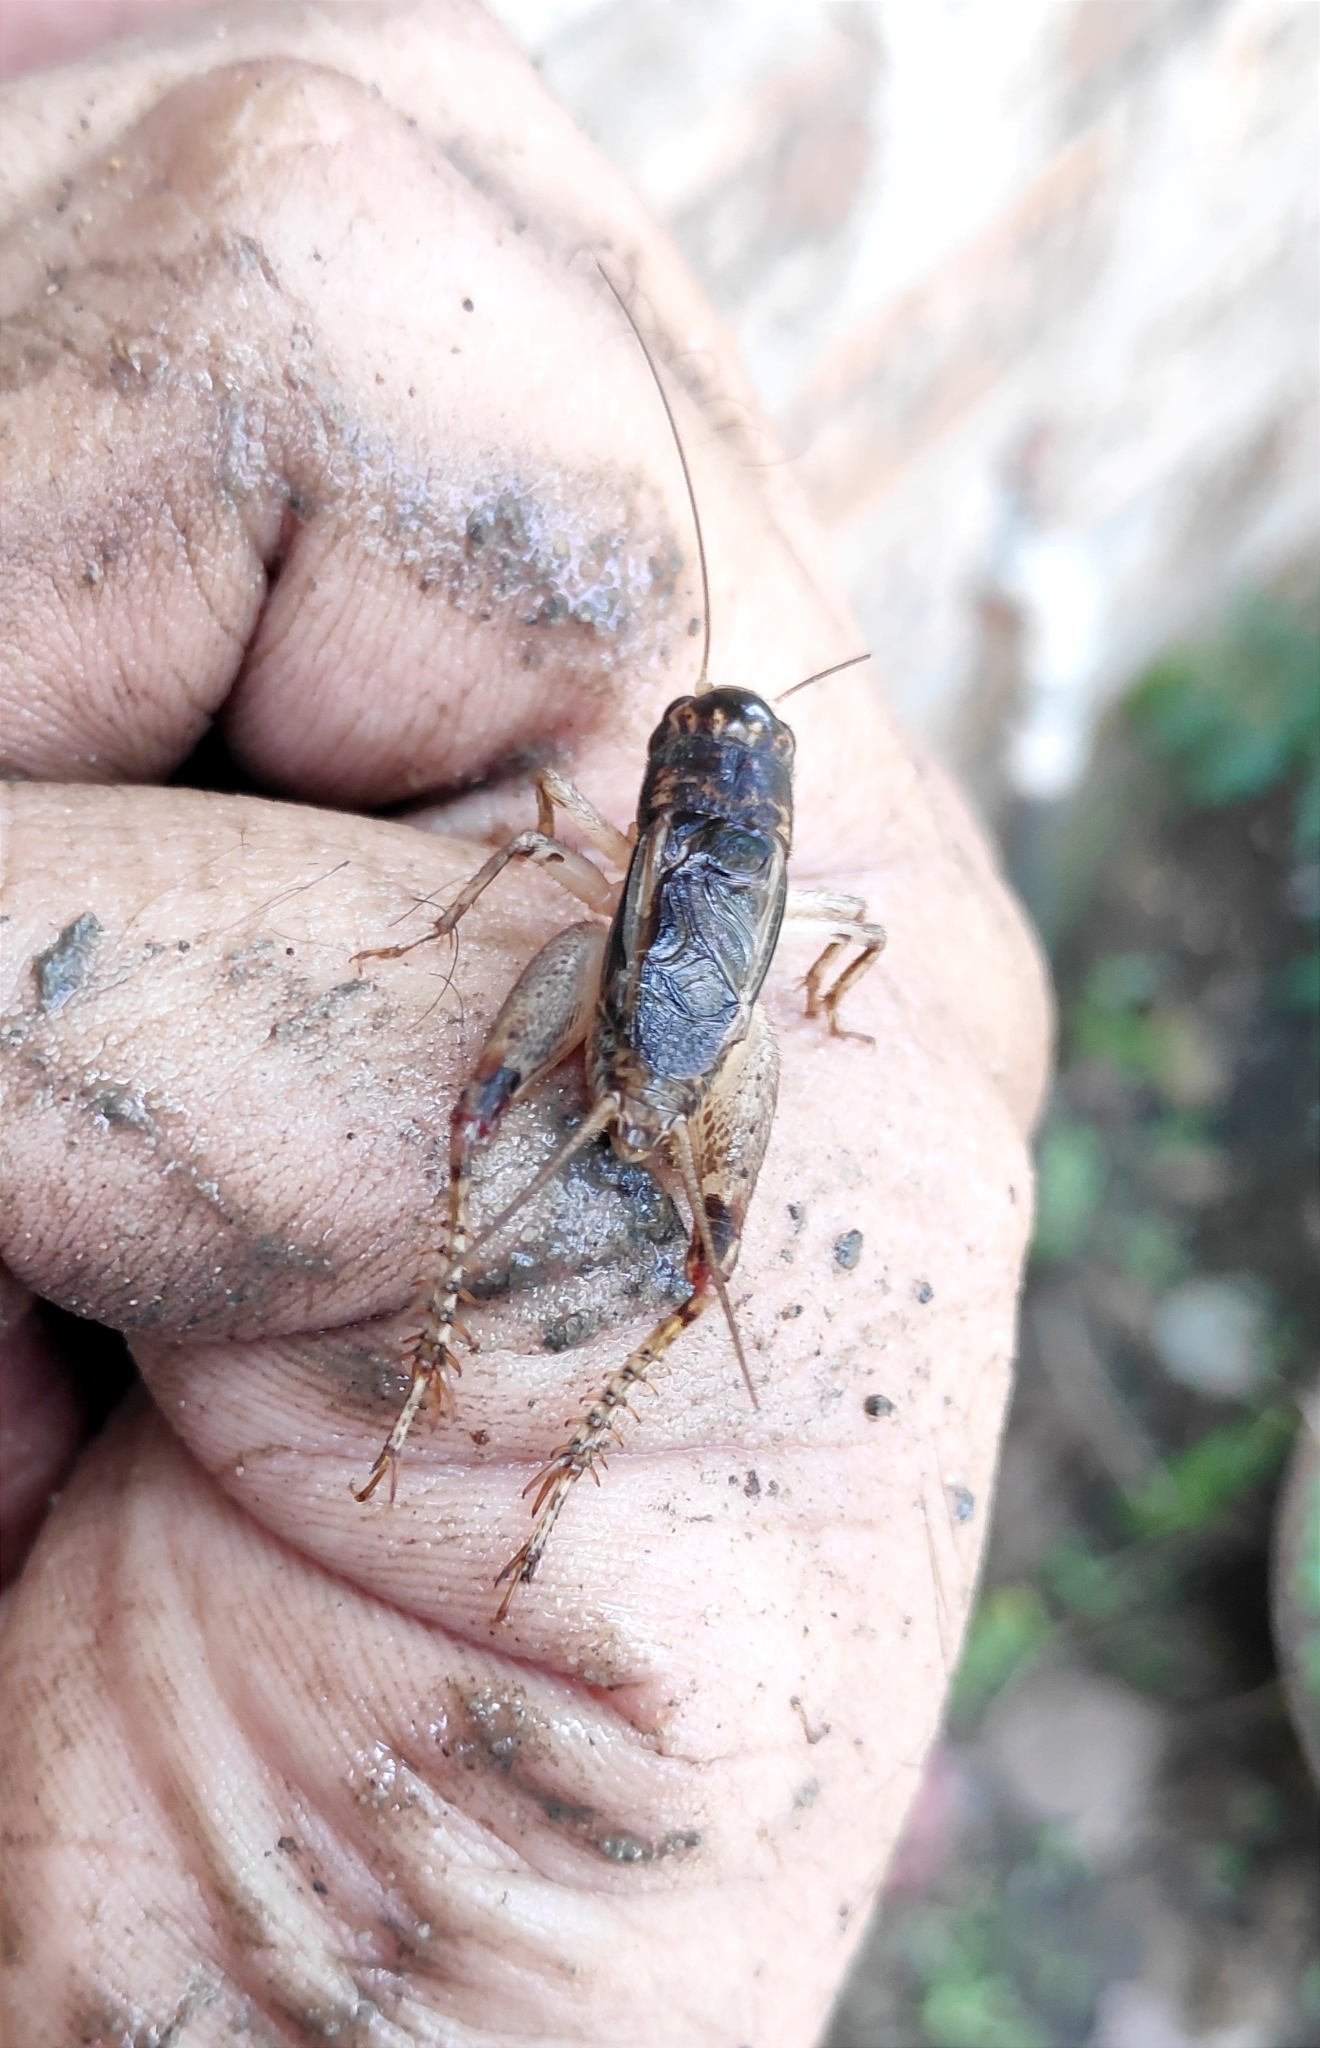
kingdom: Animalia
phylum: Arthropoda
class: Insecta
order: Orthoptera
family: Gryllidae
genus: Velarifictorus
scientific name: Velarifictorus micado
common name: Japanese burrowing cricket
